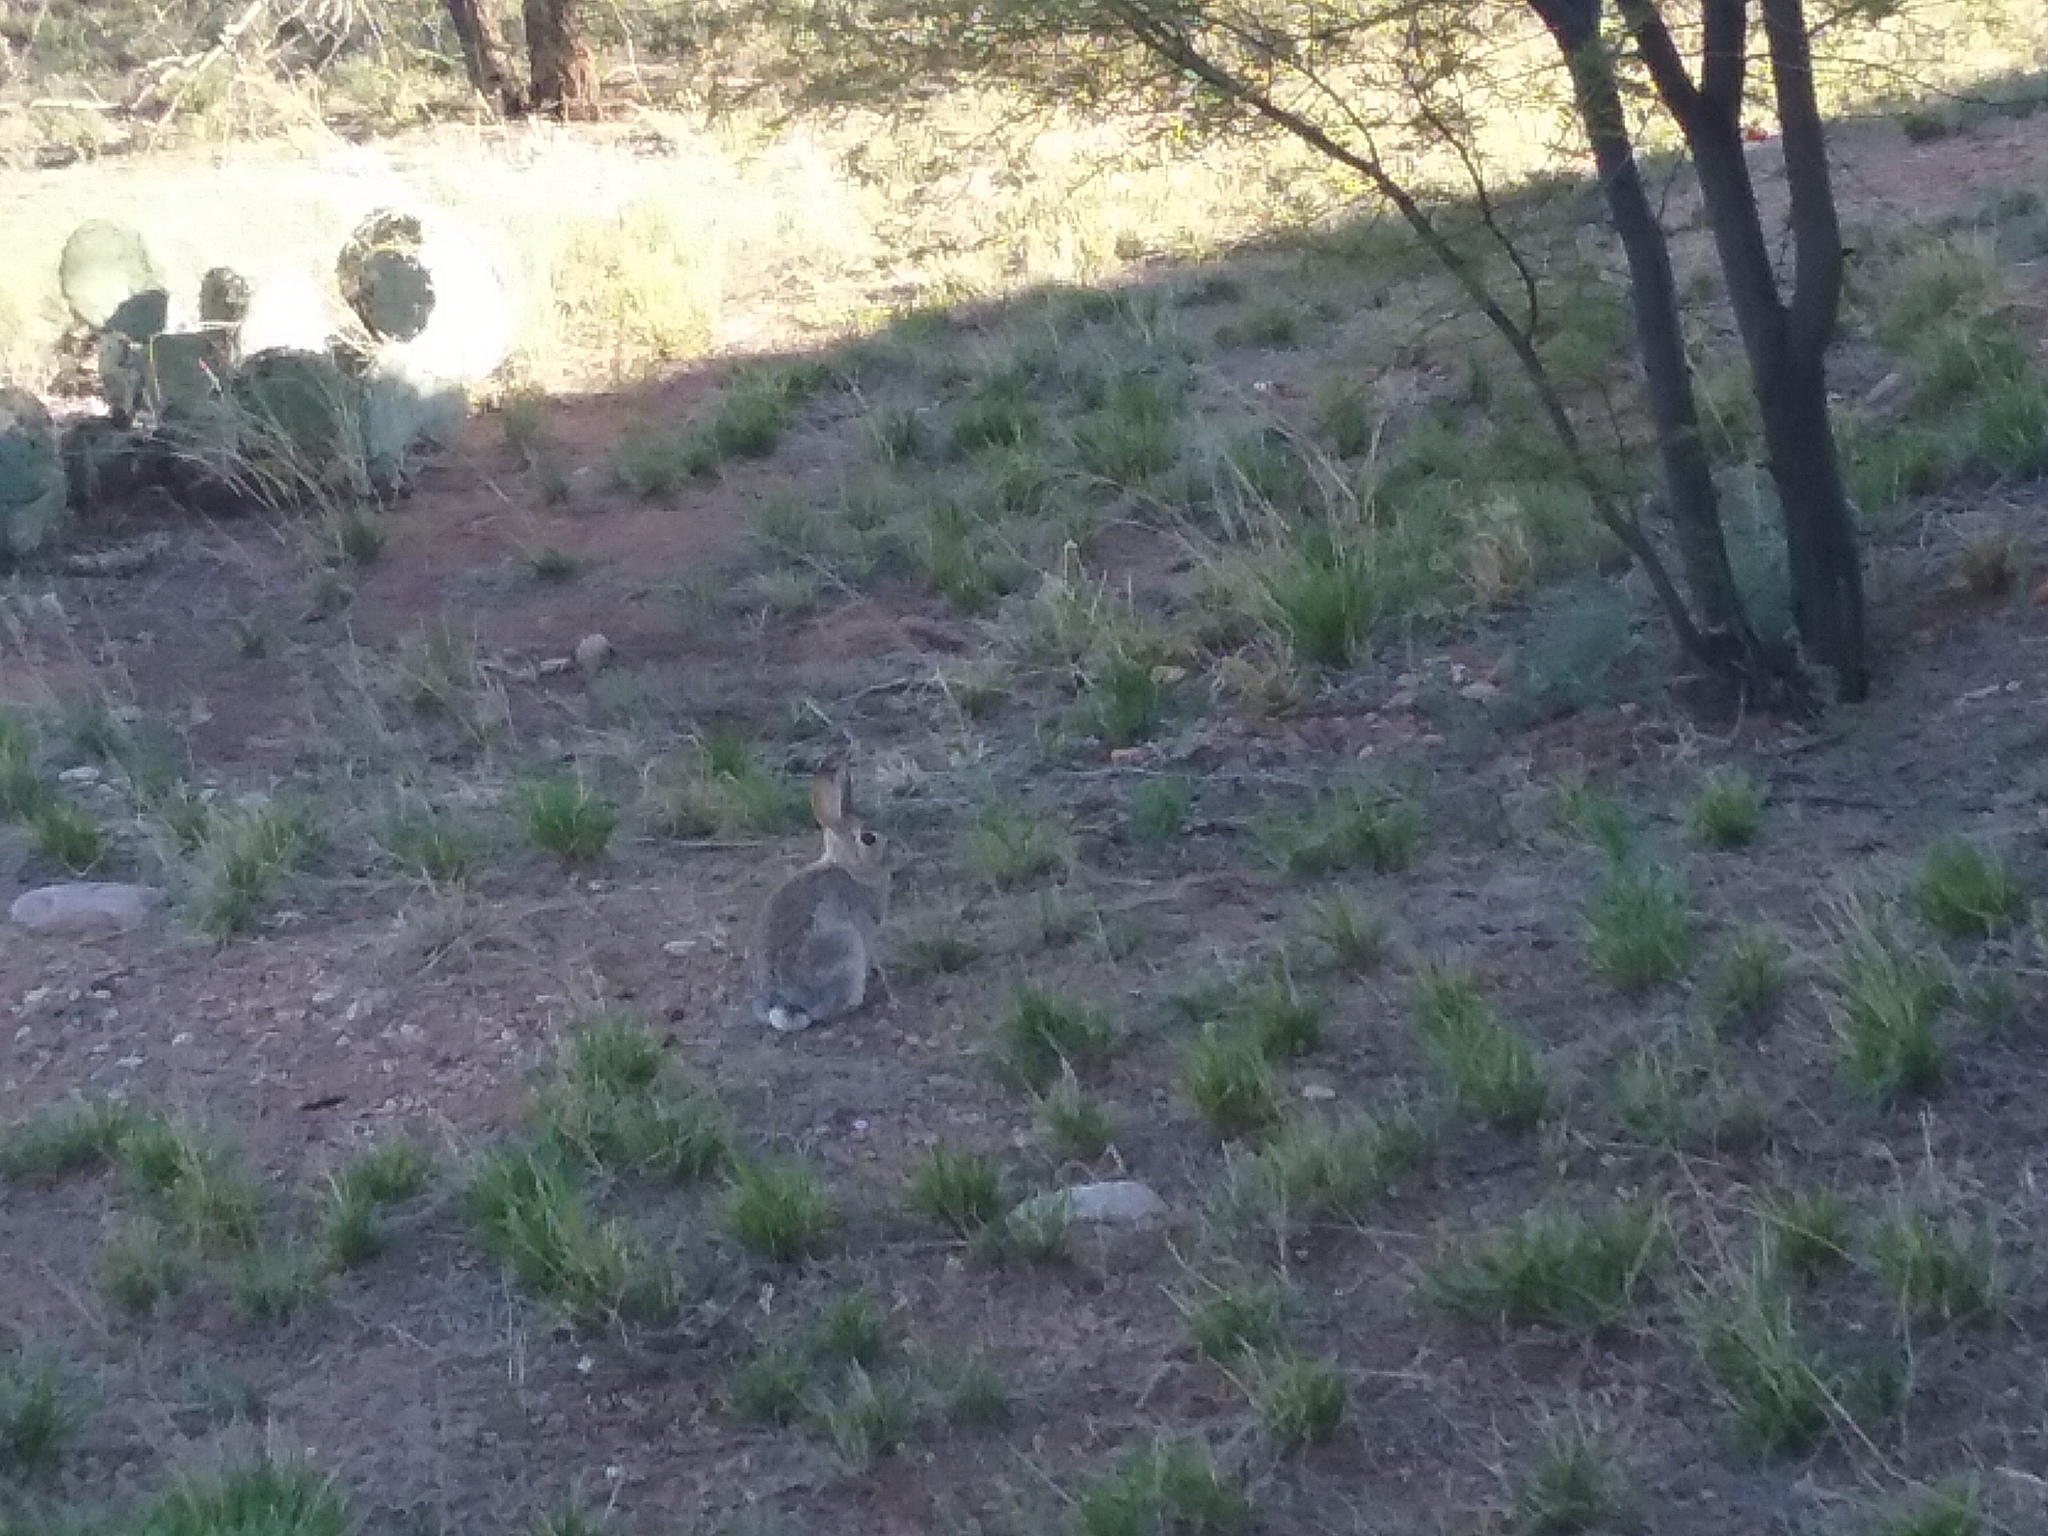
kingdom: Animalia
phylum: Chordata
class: Mammalia
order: Lagomorpha
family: Leporidae
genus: Sylvilagus
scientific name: Sylvilagus audubonii
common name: Desert cottontail
